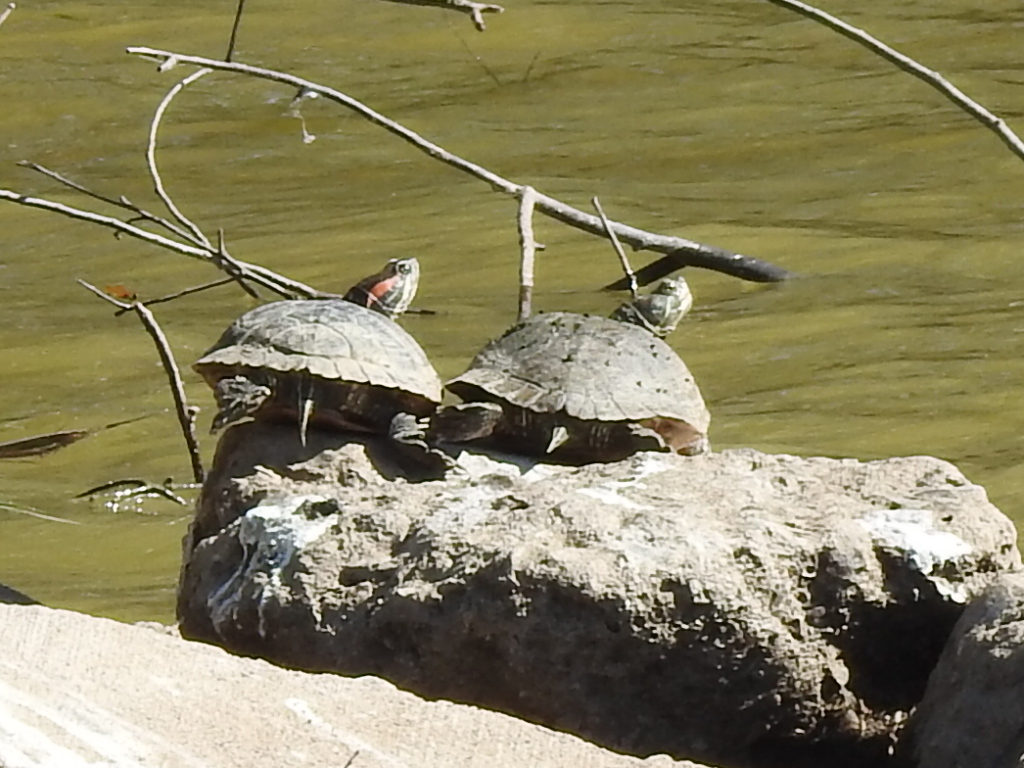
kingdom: Animalia
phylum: Chordata
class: Testudines
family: Emydidae
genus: Trachemys
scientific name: Trachemys scripta
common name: Slider
